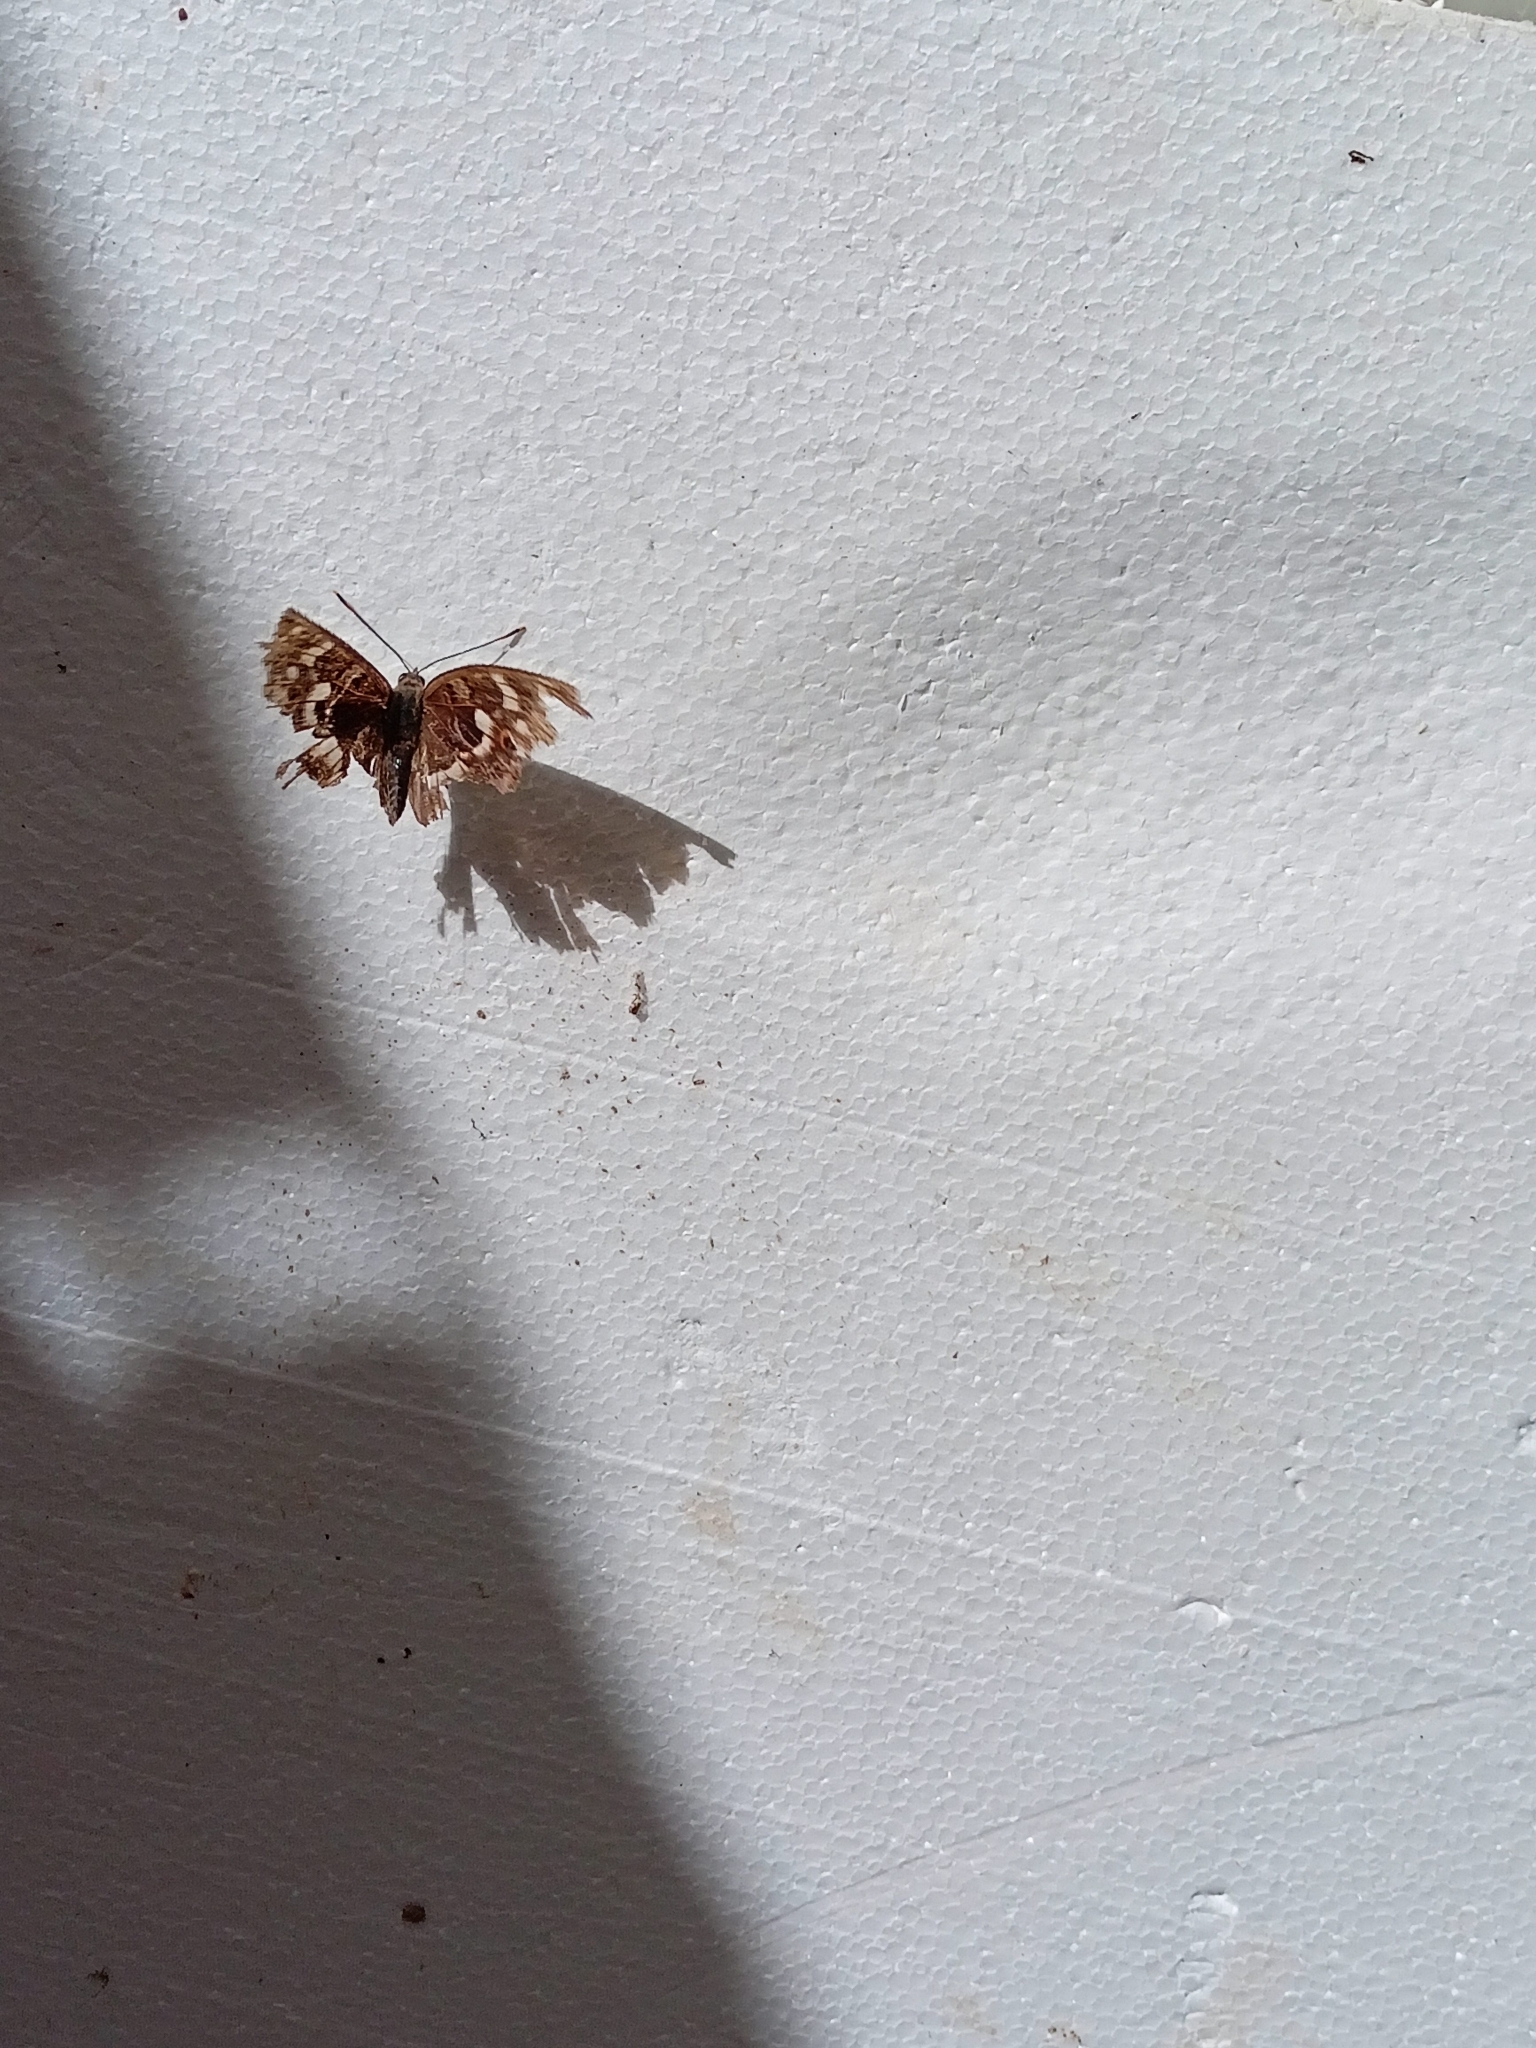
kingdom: Animalia
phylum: Arthropoda
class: Insecta
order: Lepidoptera
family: Nymphalidae
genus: Apatura
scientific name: Apatura ilia
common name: Lesser purple emperor
